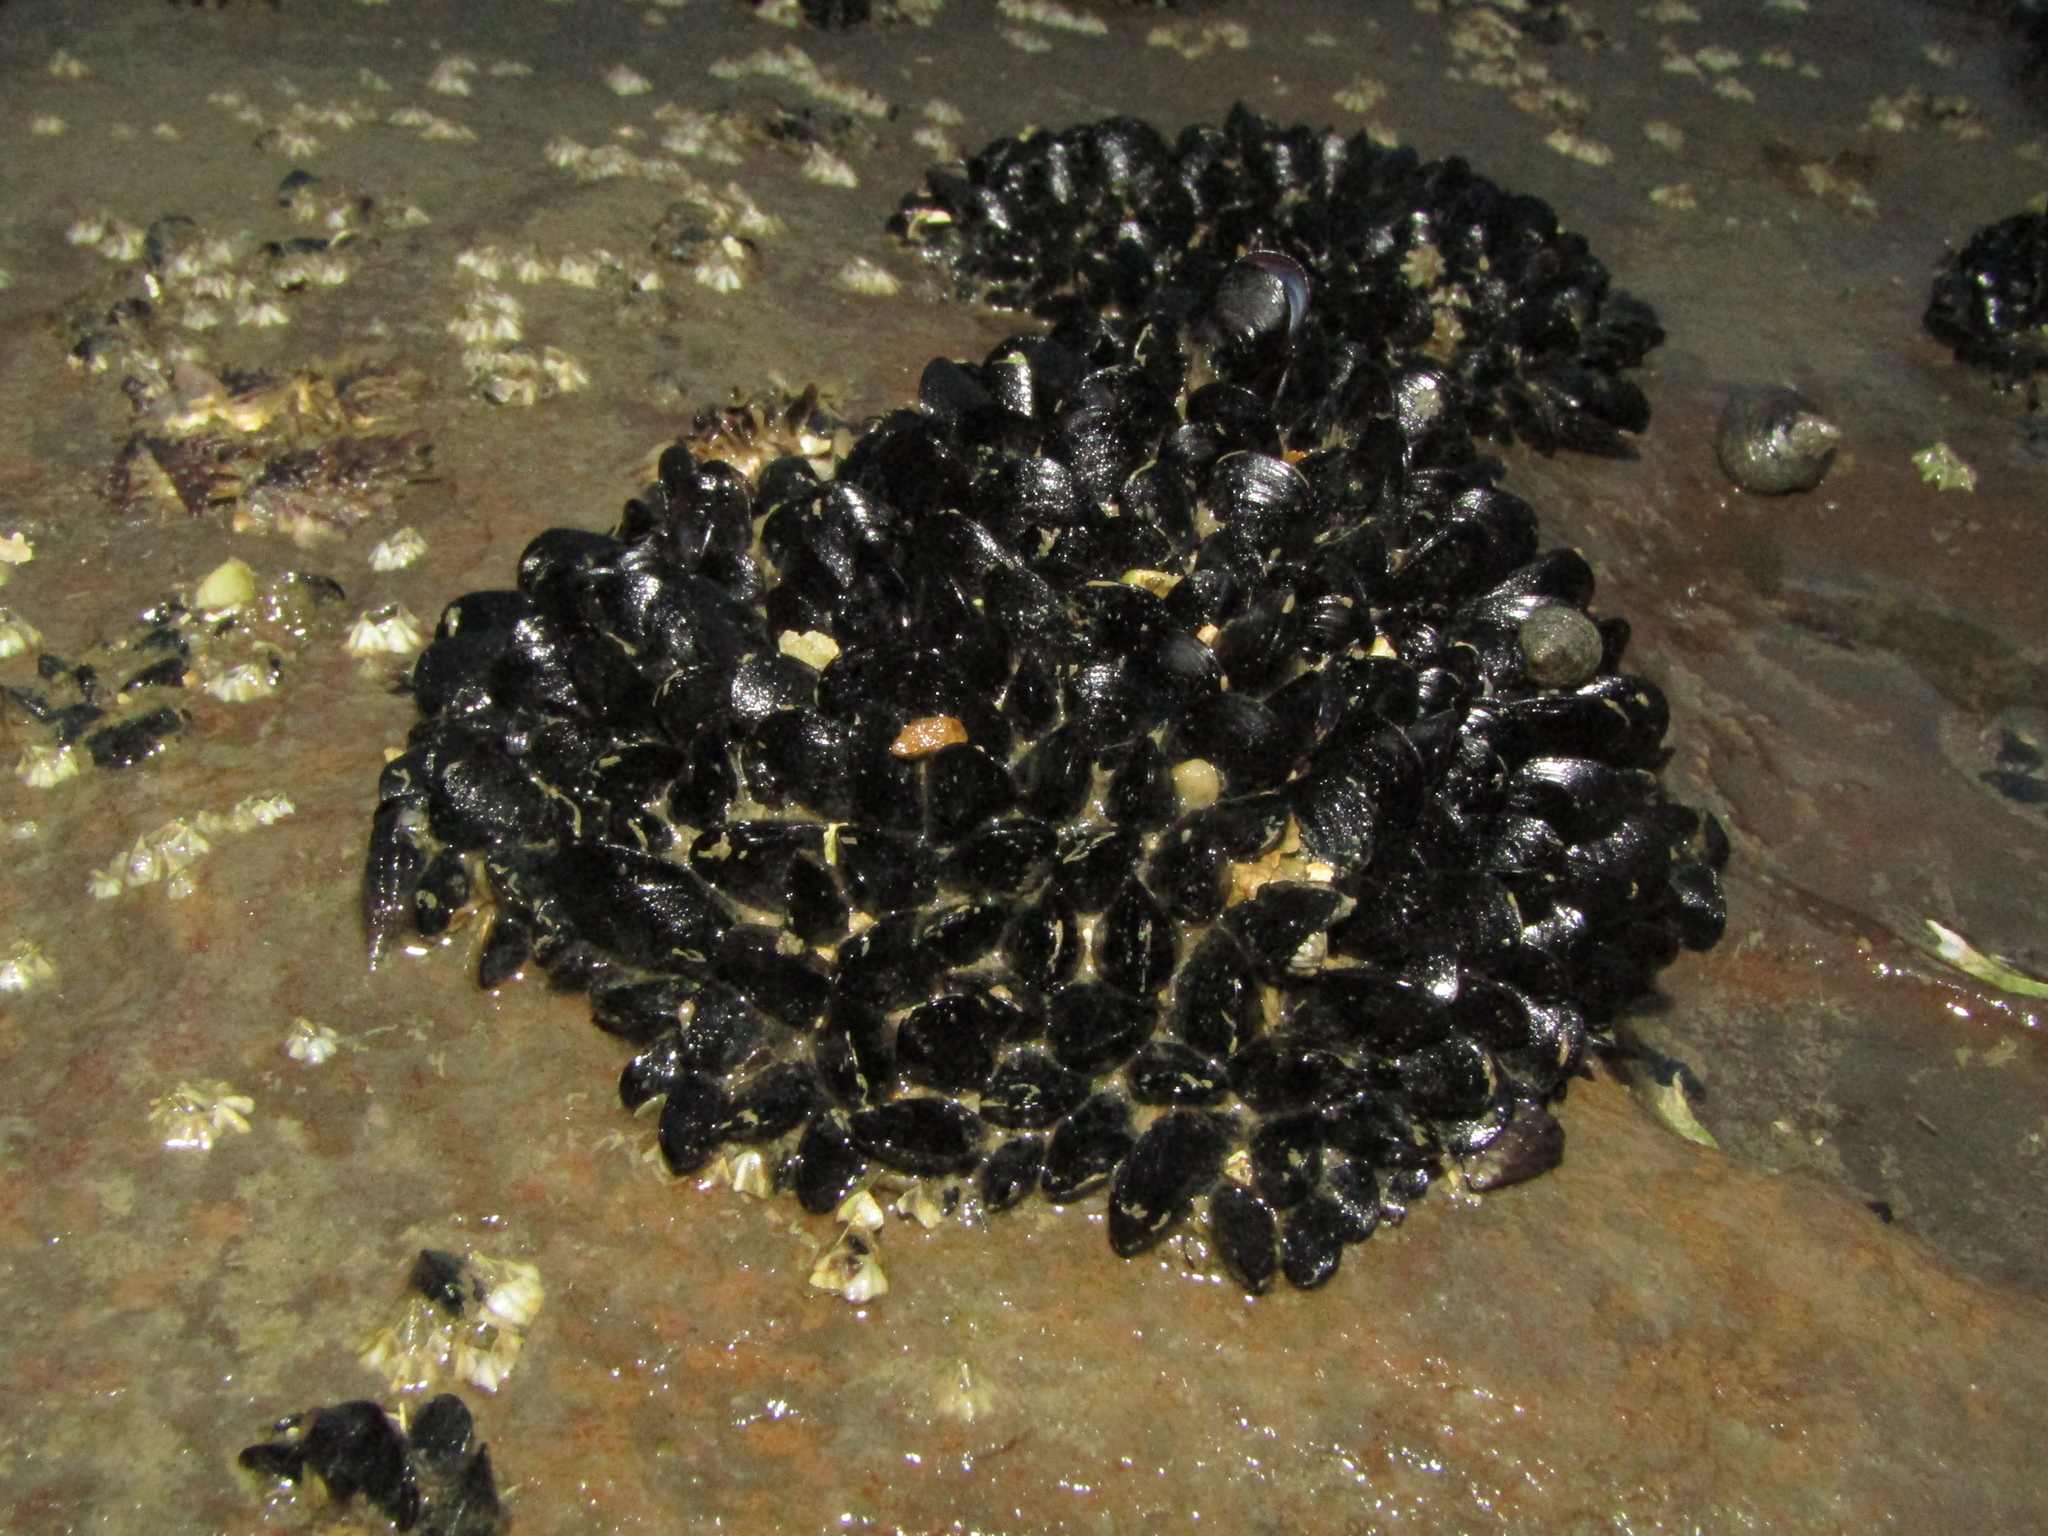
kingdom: Animalia
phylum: Mollusca
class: Bivalvia
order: Mytilida
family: Mytilidae
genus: Xenostrobus
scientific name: Xenostrobus neozelanicus
